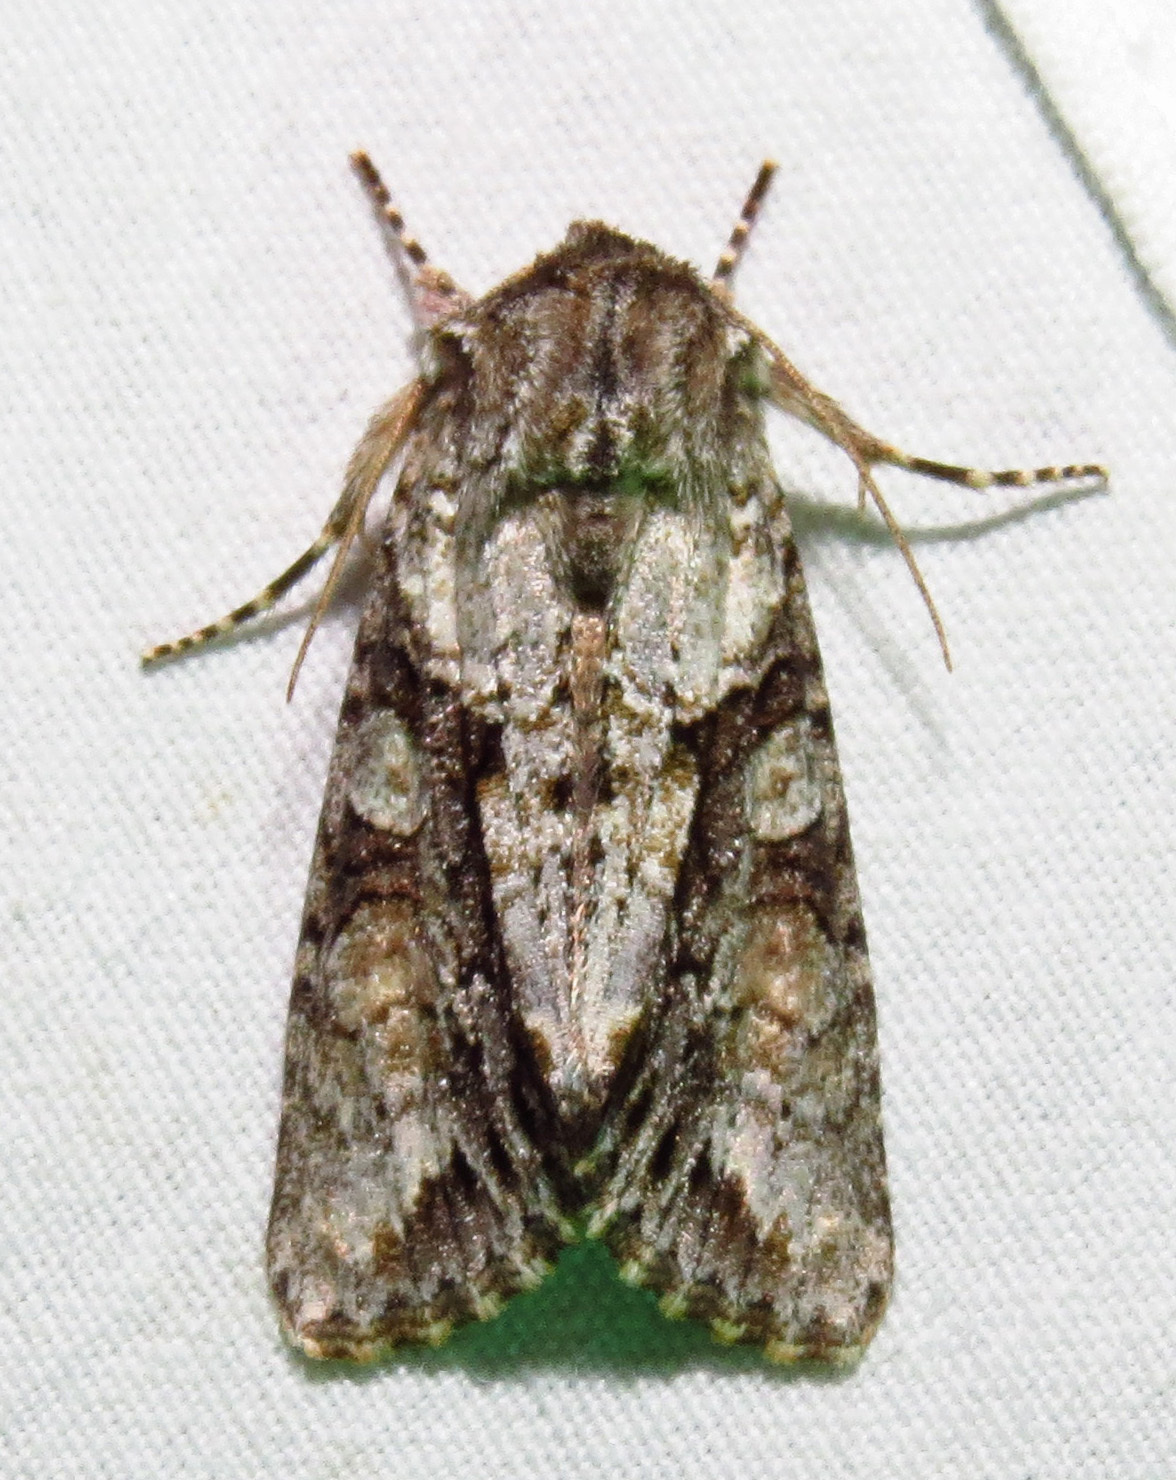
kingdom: Animalia
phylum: Arthropoda
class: Insecta
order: Lepidoptera
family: Noctuidae
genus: Achatia
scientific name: Achatia distincta
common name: Distinct quaker
